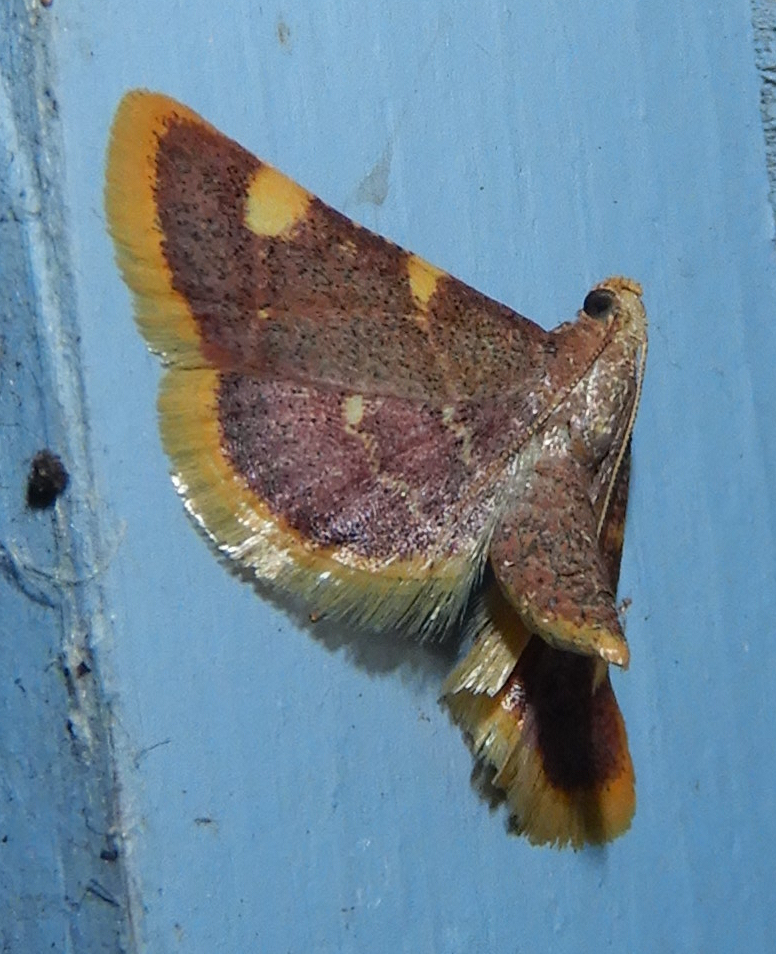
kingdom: Animalia
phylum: Arthropoda
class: Insecta
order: Lepidoptera
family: Pyralidae
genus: Hypsopygia
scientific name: Hypsopygia costalis
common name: Gold triangle
